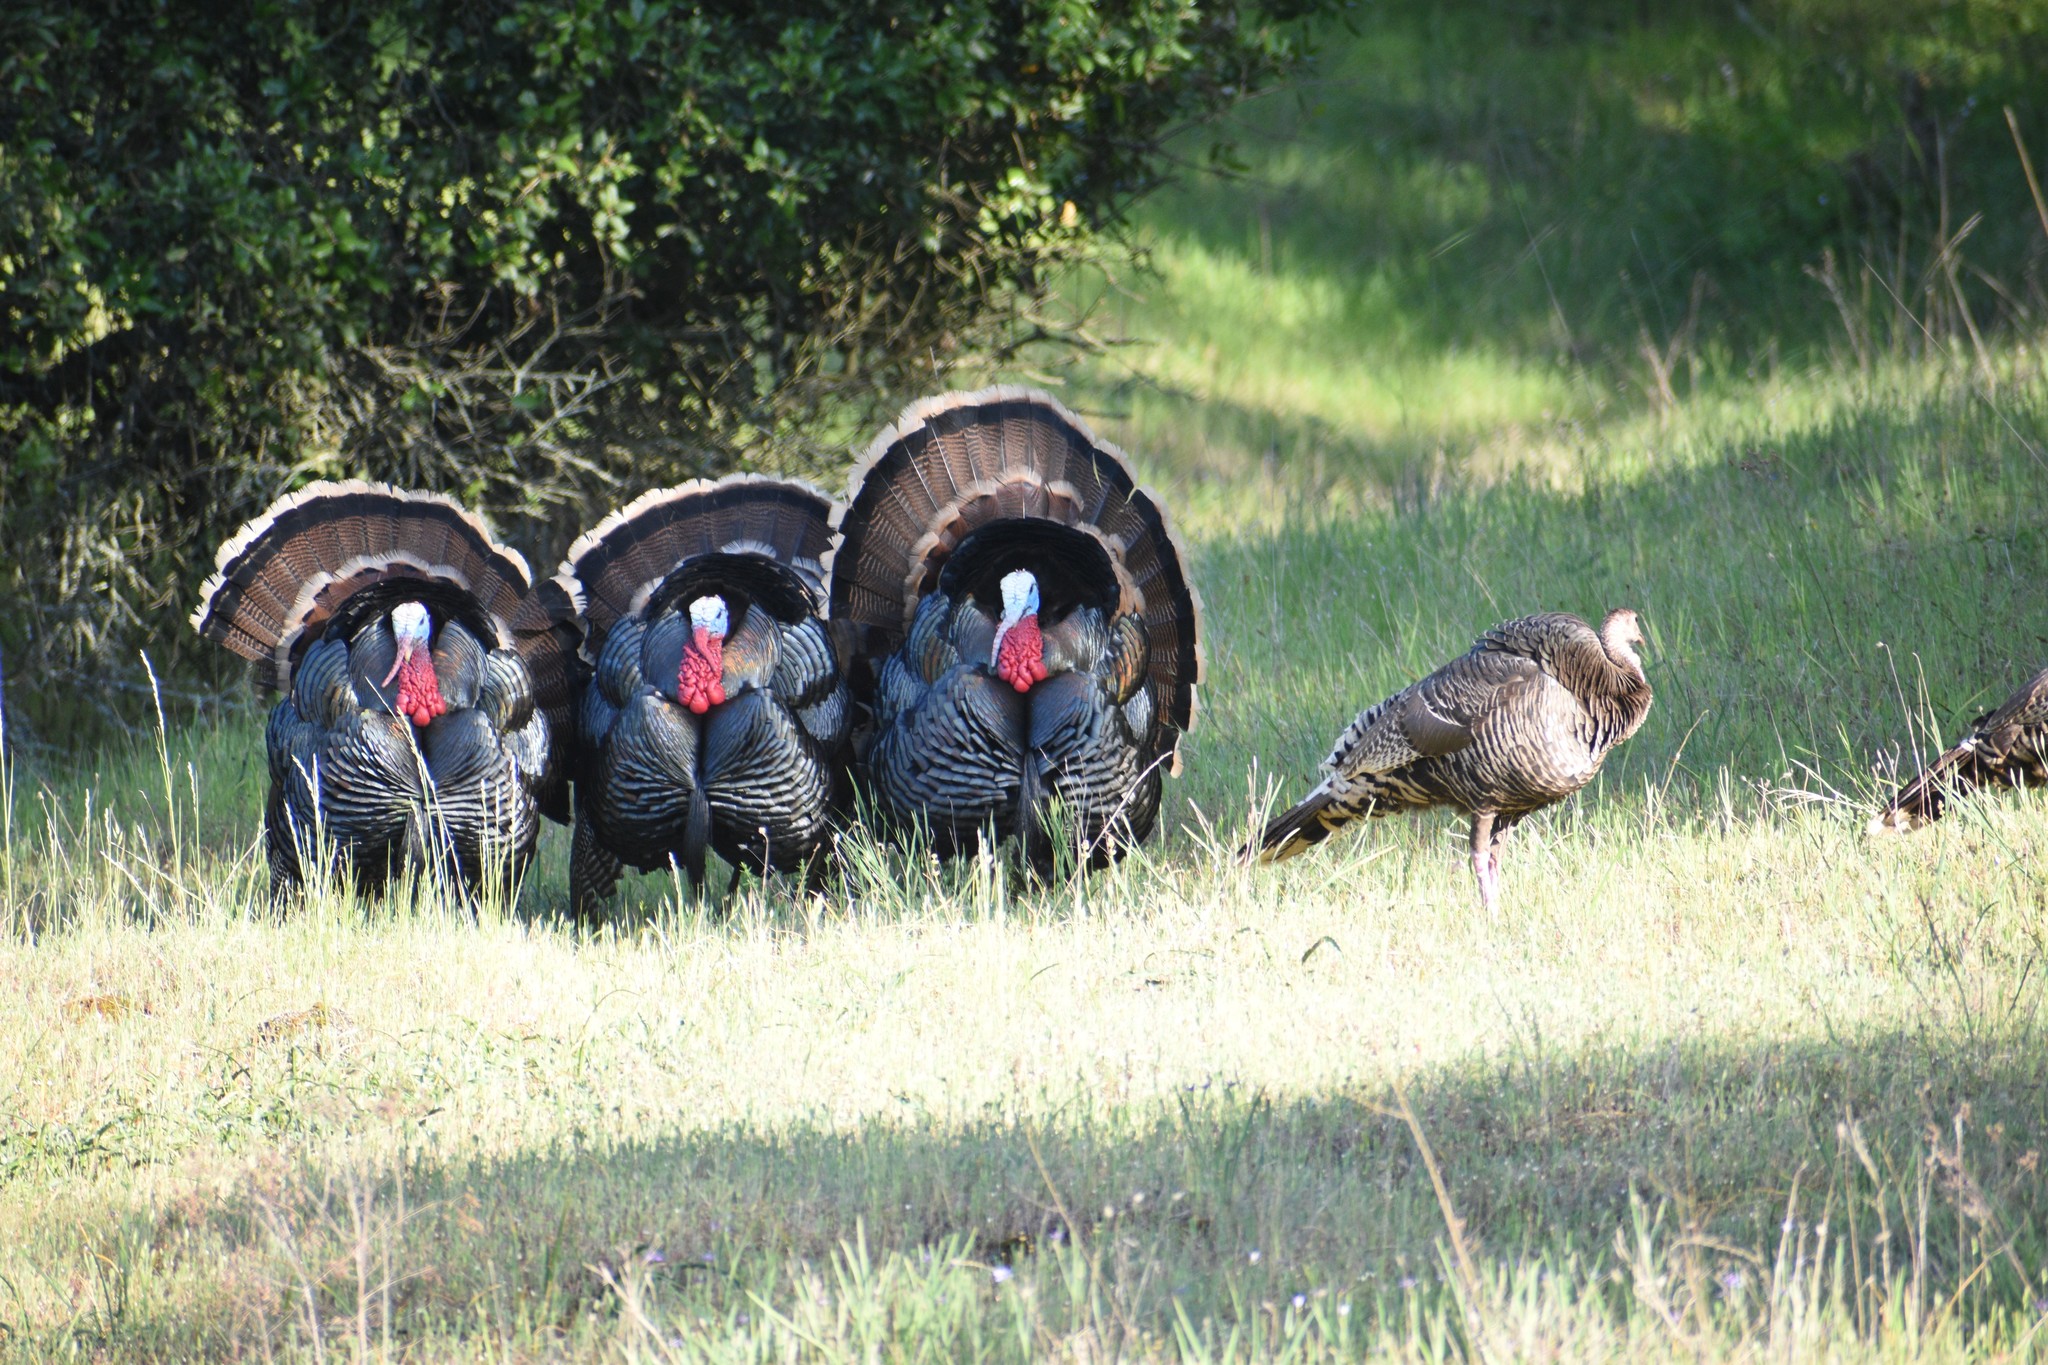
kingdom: Animalia
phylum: Chordata
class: Aves
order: Galliformes
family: Phasianidae
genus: Meleagris
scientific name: Meleagris gallopavo
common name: Wild turkey
